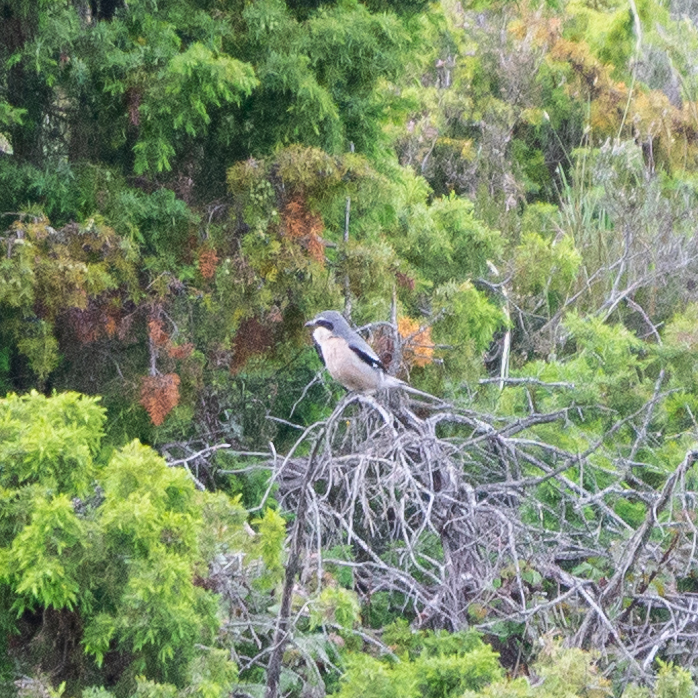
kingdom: Animalia
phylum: Chordata
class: Aves
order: Passeriformes
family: Laniidae
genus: Lanius
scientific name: Lanius meridionalis
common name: Iberian grey shrike
